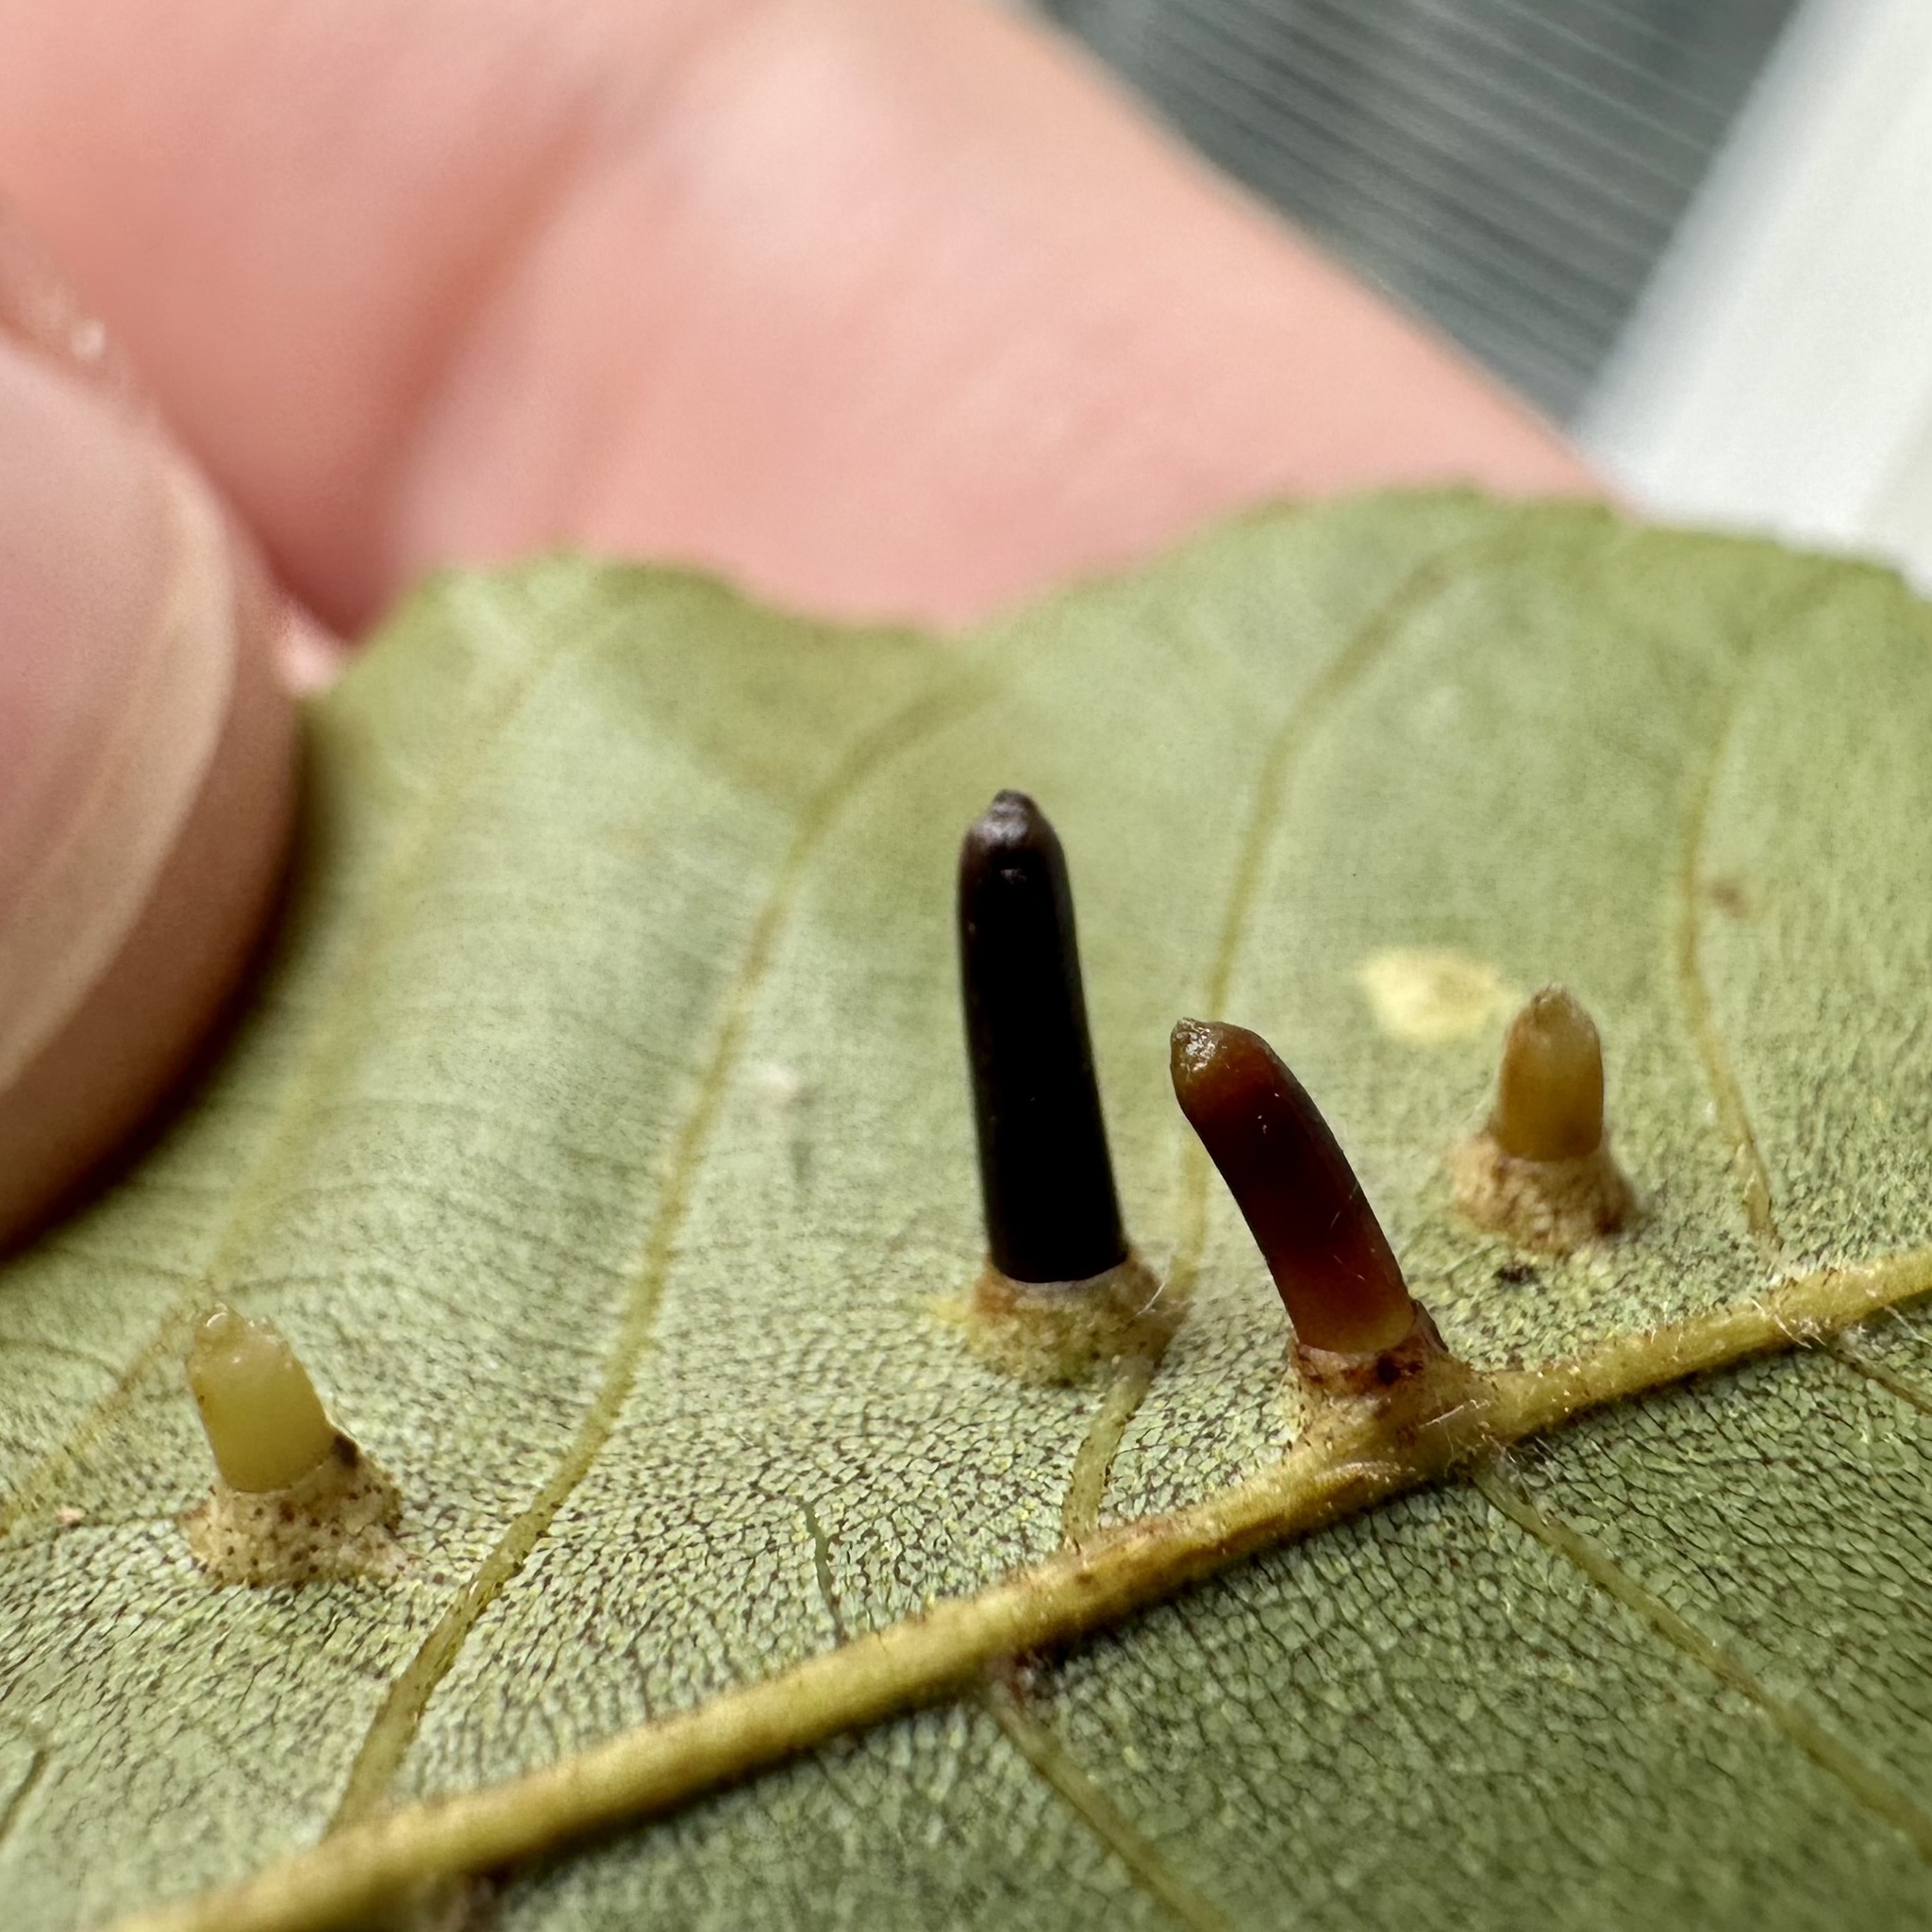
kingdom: Animalia
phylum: Arthropoda
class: Insecta
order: Diptera
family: Cecidomyiidae
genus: Caryomyia
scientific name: Caryomyia tubicola
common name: Hickory bullet gall midge
